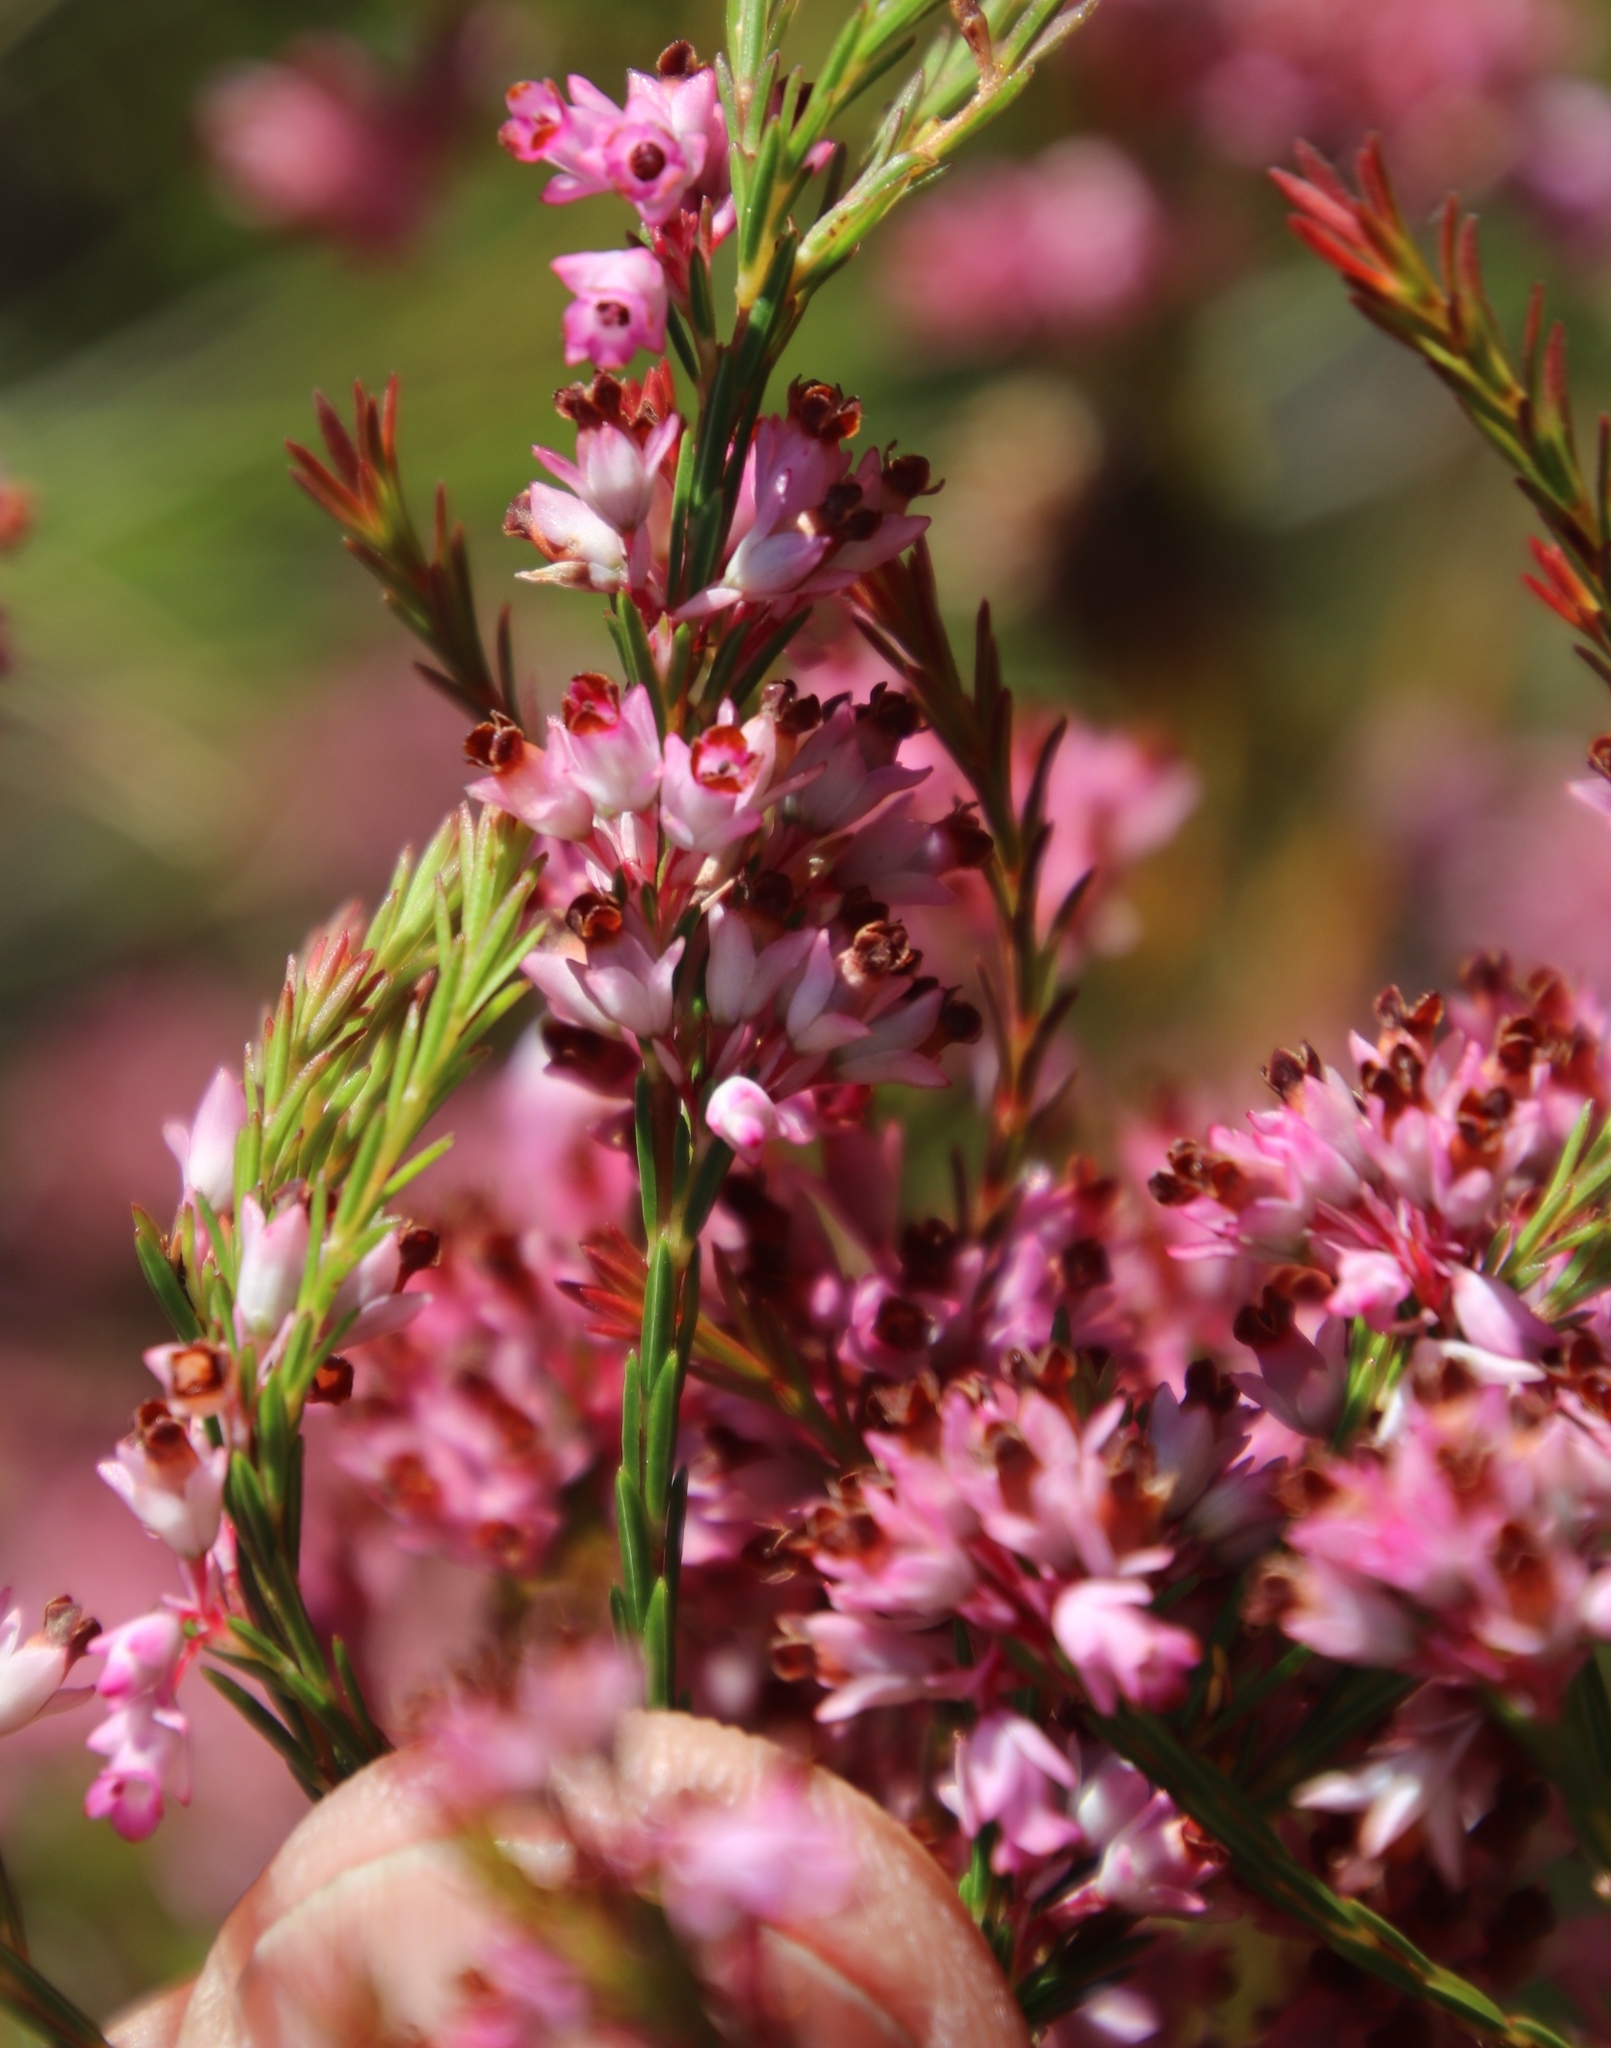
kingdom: Plantae
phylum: Tracheophyta
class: Magnoliopsida
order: Ericales
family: Ericaceae
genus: Erica
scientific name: Erica corifolia
